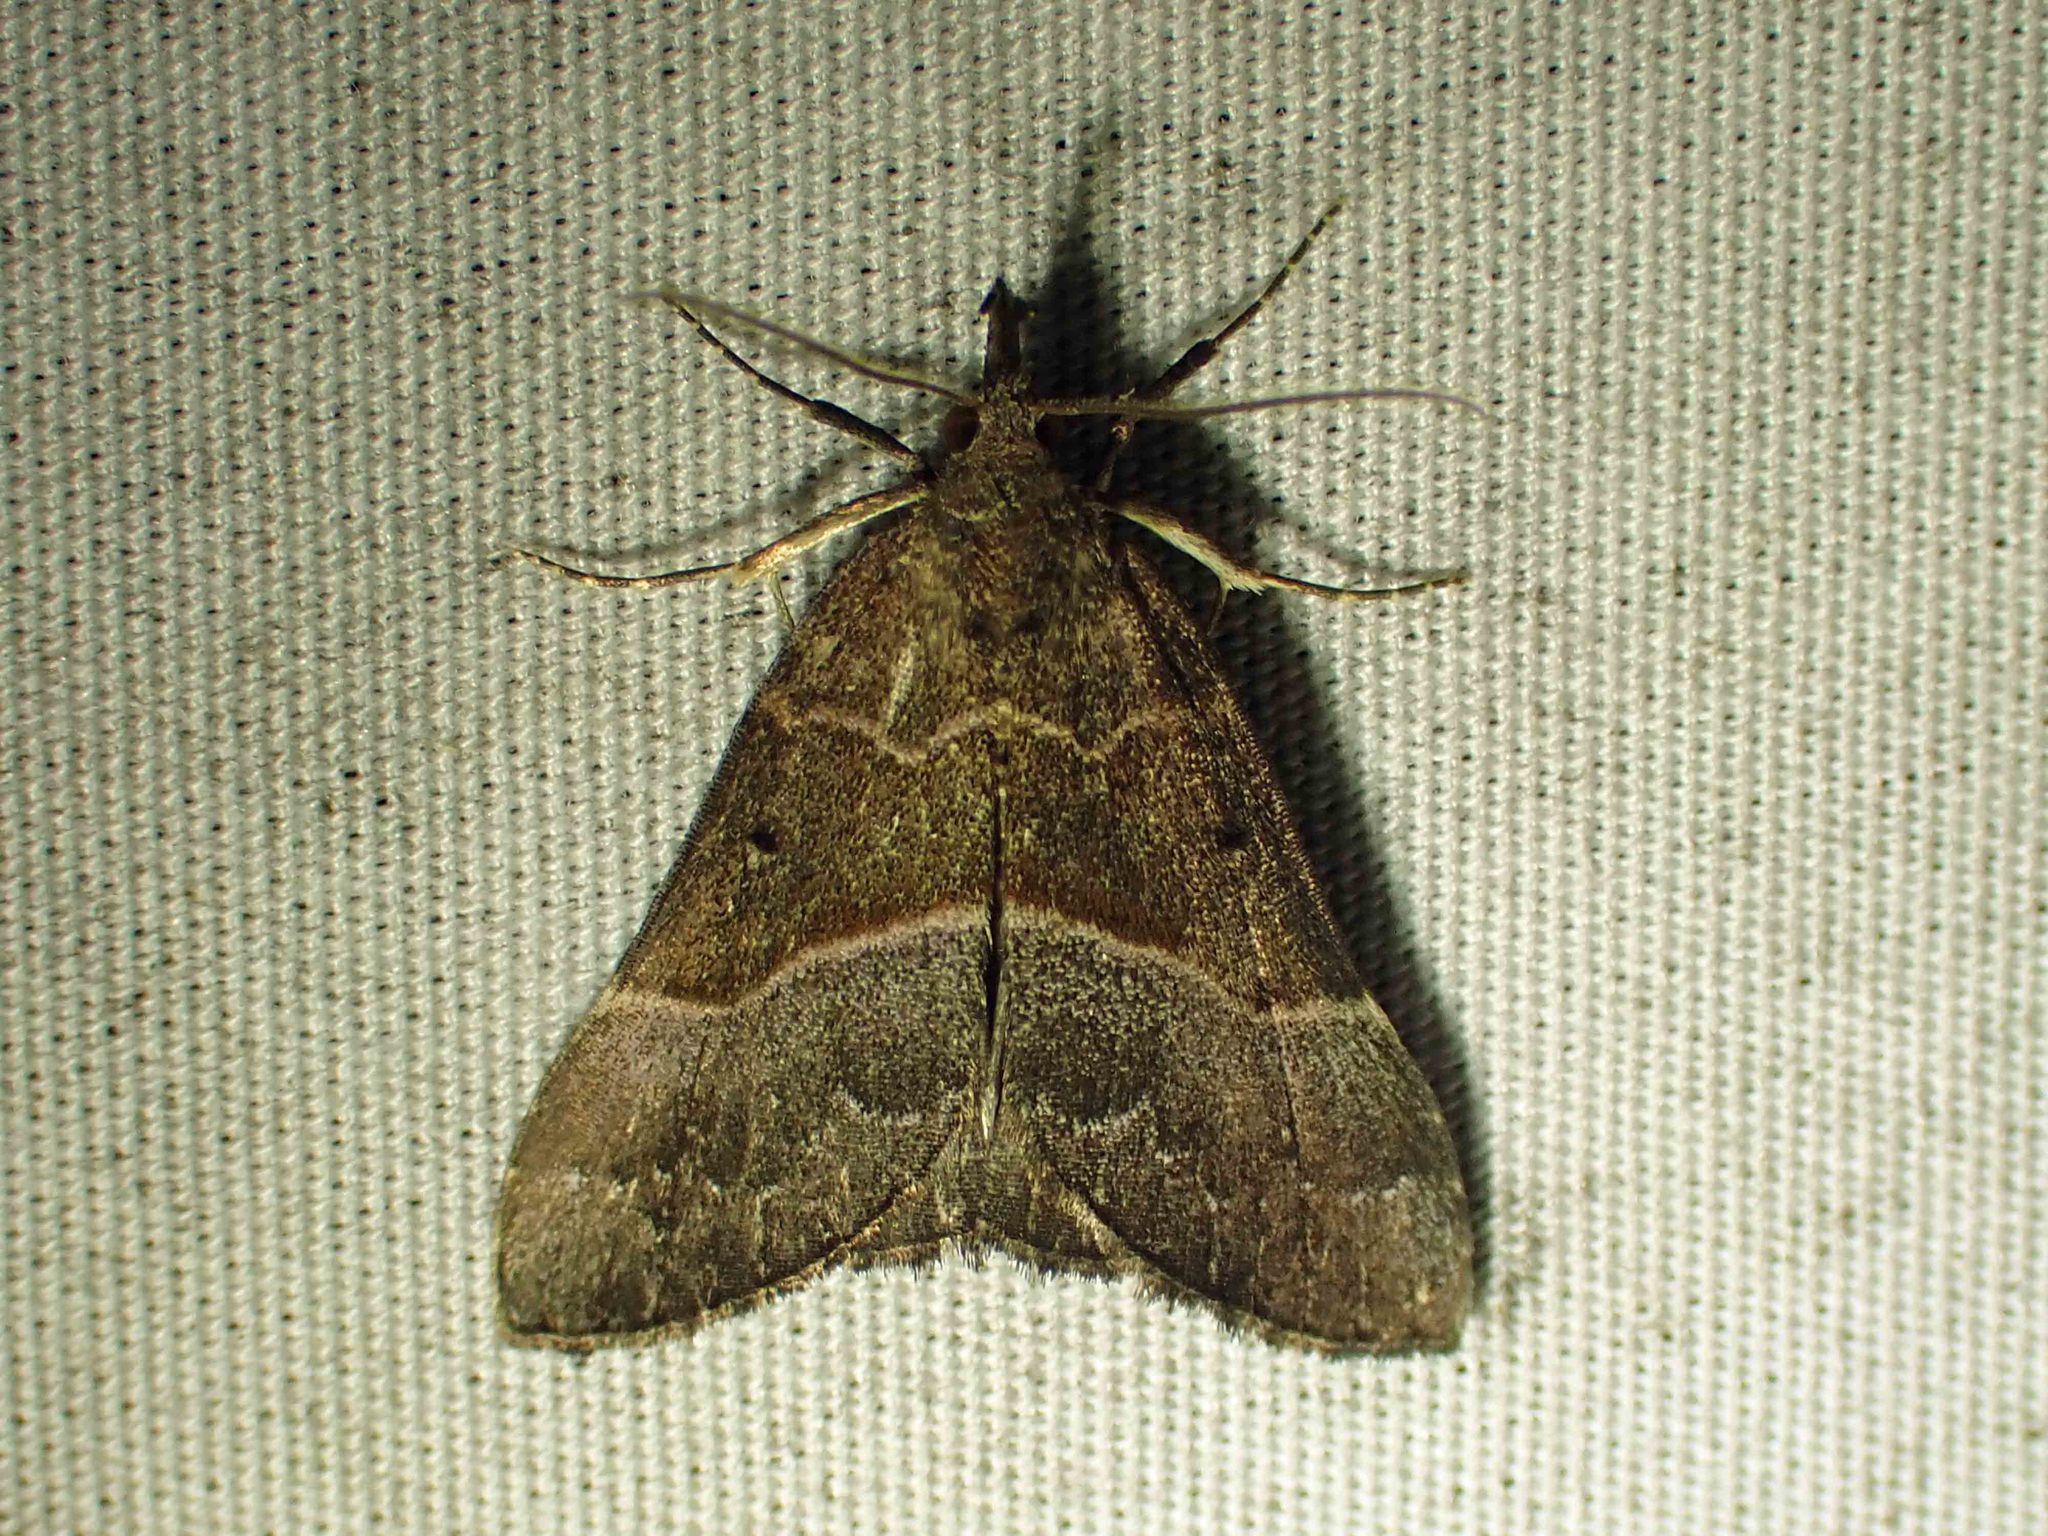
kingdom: Animalia
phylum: Arthropoda
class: Insecta
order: Lepidoptera
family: Erebidae
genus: Hypena
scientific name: Hypena eductalis
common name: Red-footed snout
